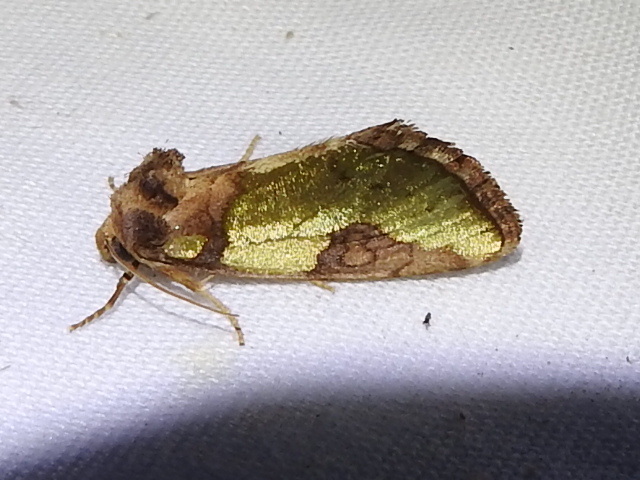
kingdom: Animalia
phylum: Arthropoda
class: Insecta
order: Lepidoptera
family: Noctuidae
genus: Chalcopasta
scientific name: Chalcopasta howardi
